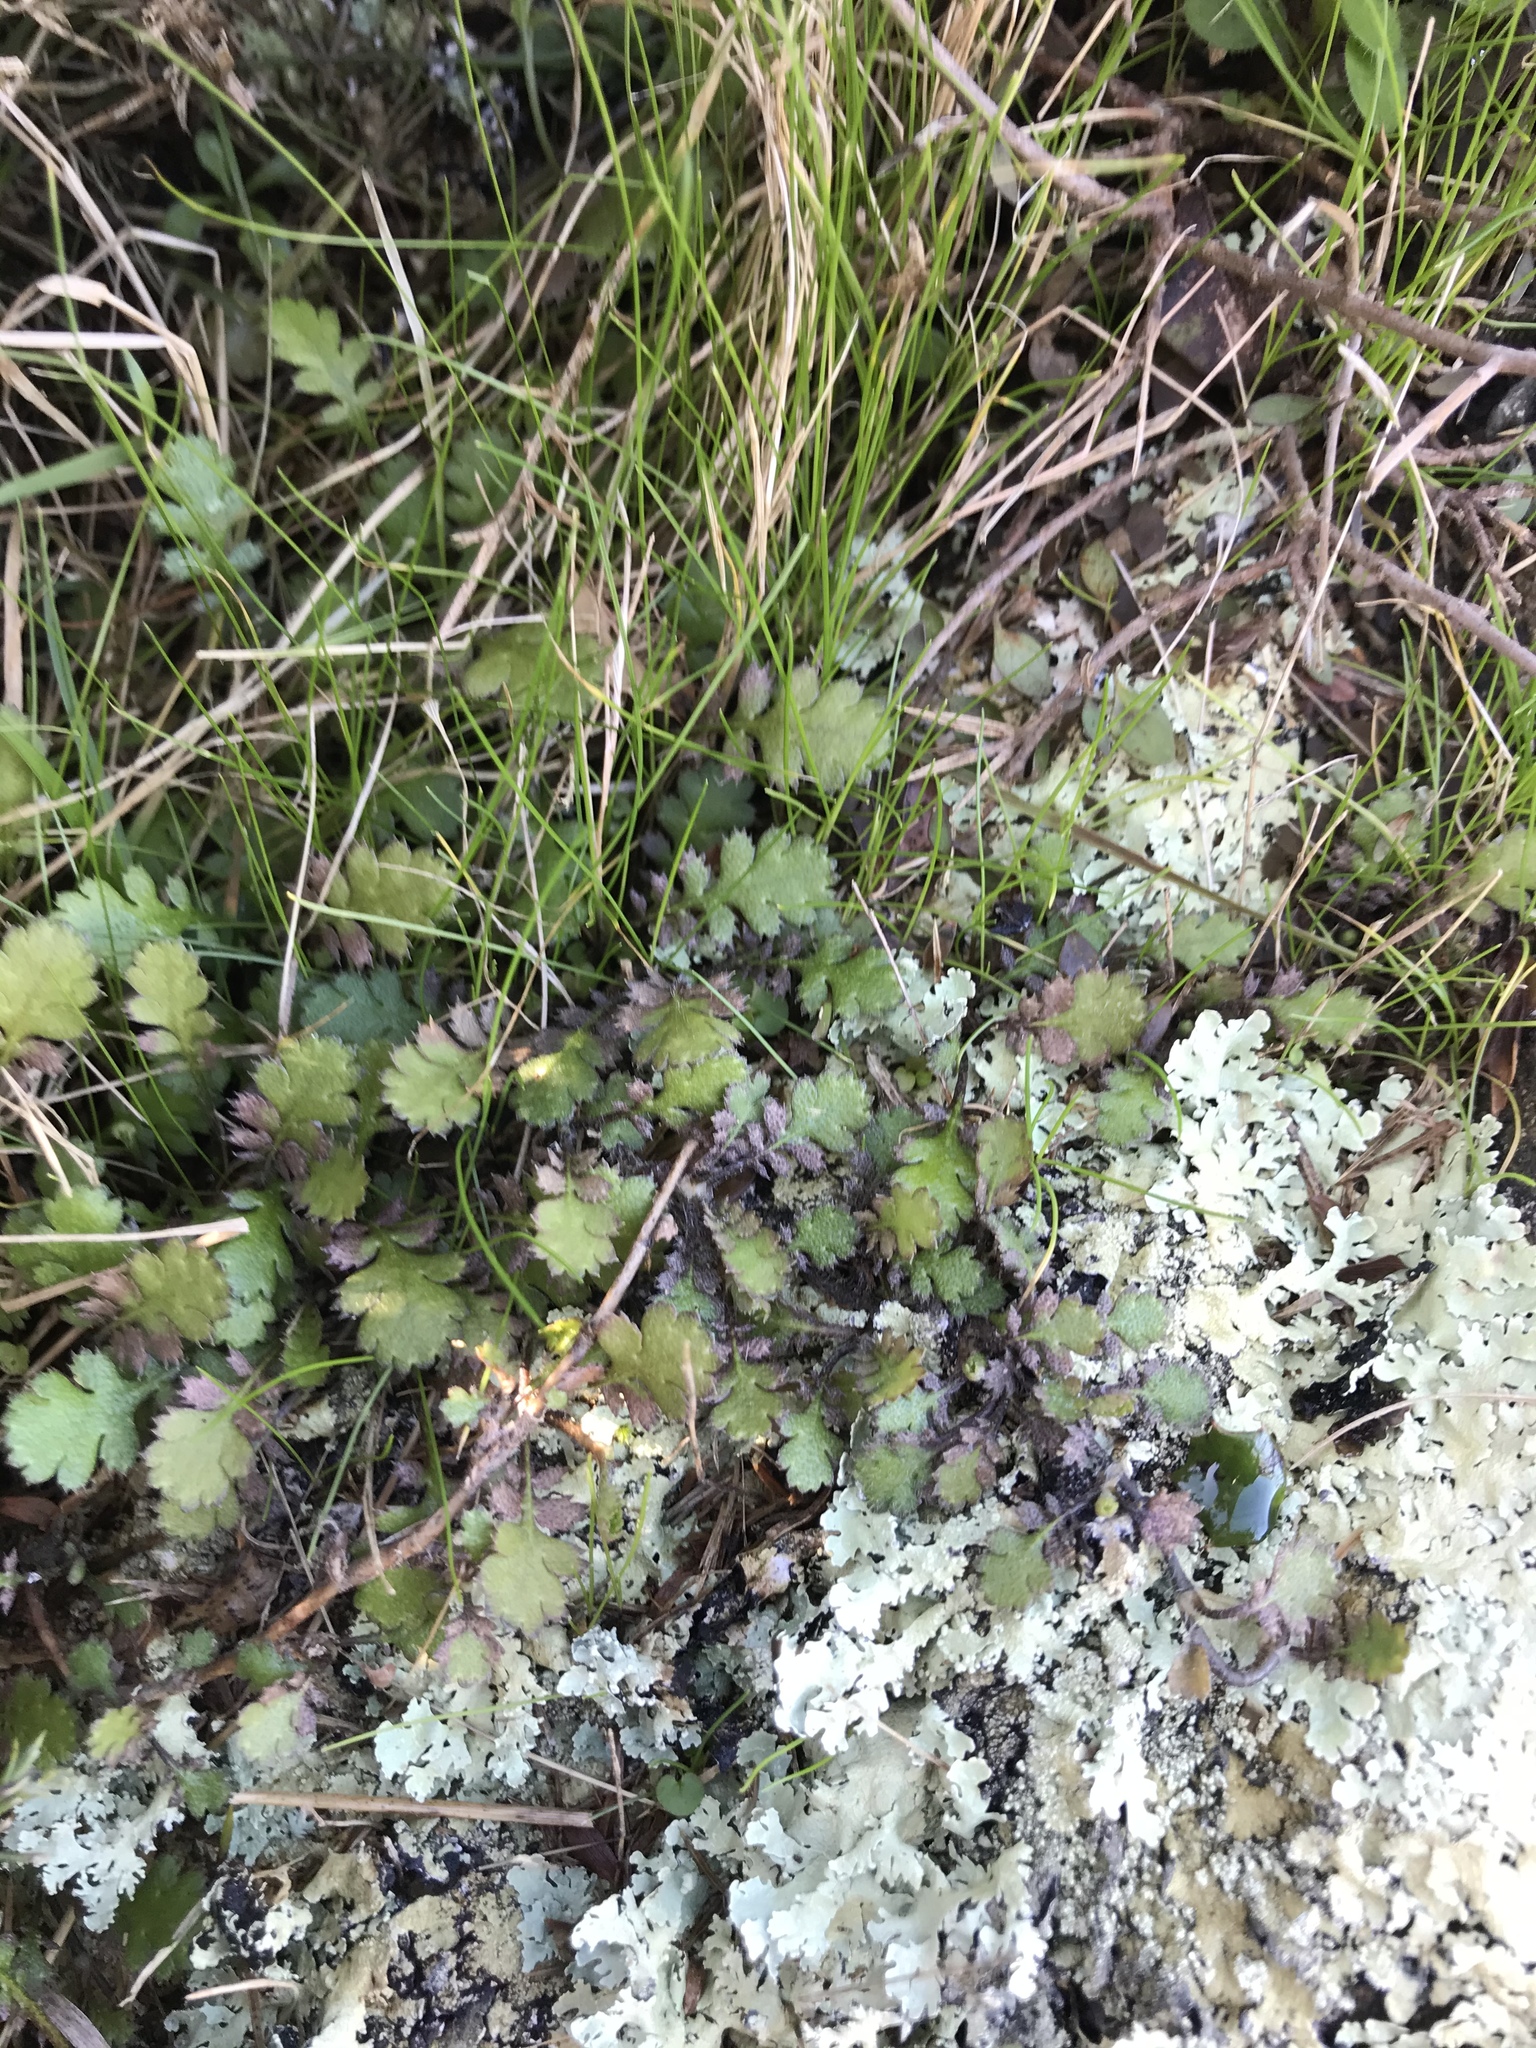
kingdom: Plantae
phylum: Tracheophyta
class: Magnoliopsida
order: Asterales
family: Asteraceae
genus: Leptinella
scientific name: Leptinella squalida
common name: New zealand brass-buttons
